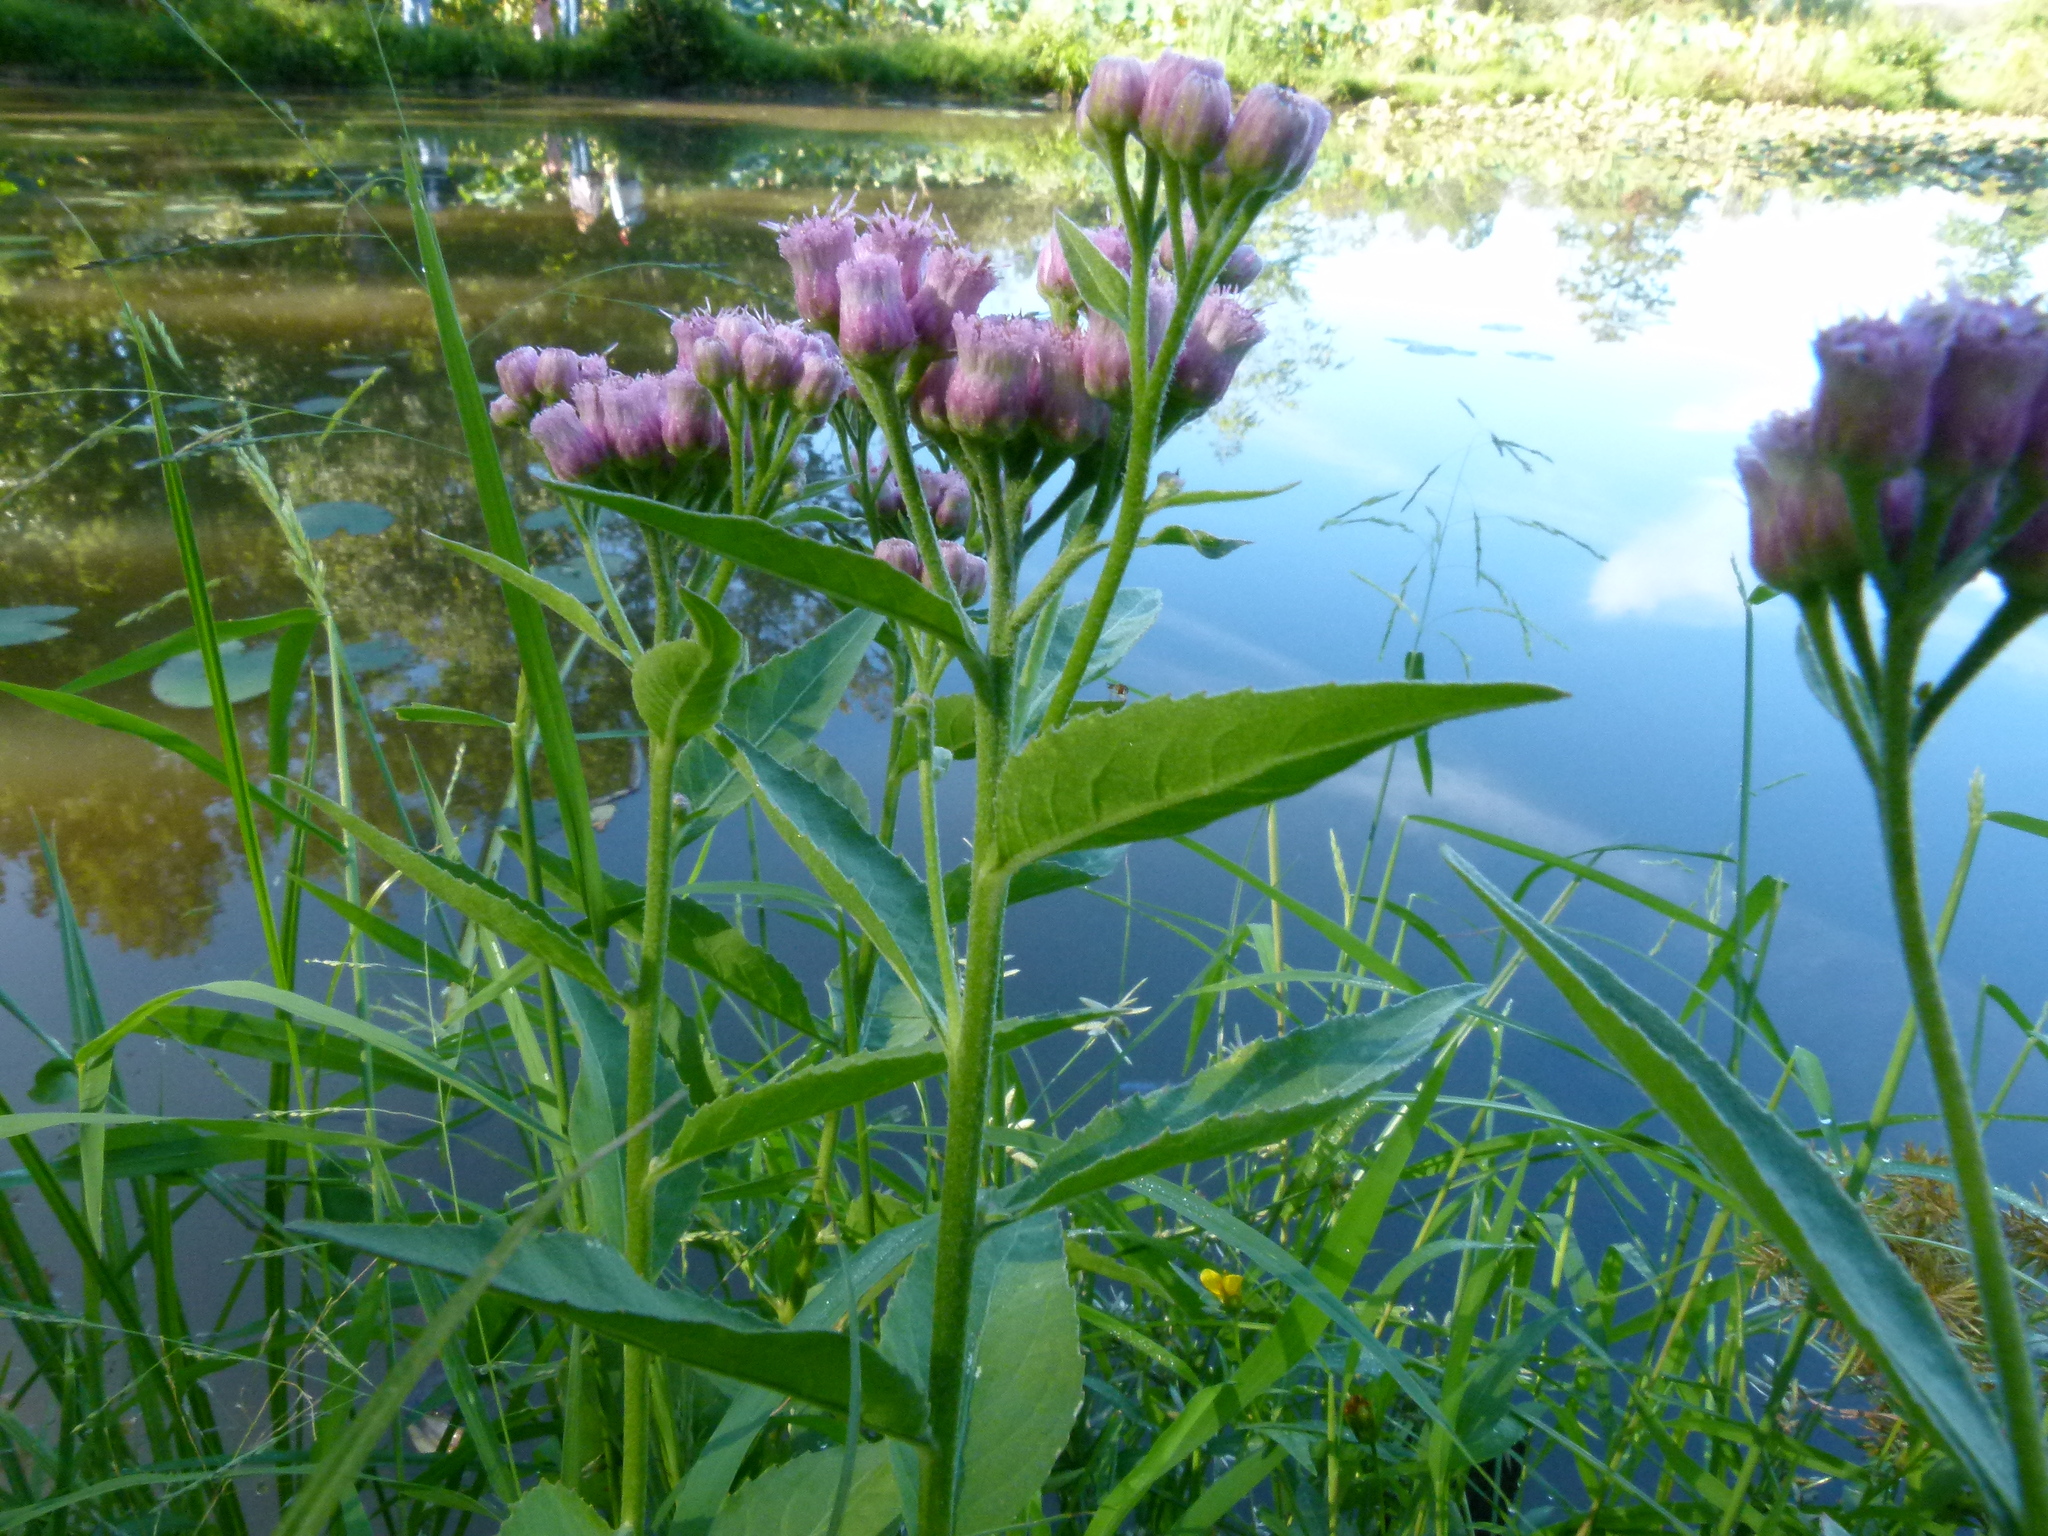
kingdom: Plantae
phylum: Tracheophyta
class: Magnoliopsida
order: Asterales
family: Asteraceae
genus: Pluchea
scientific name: Pluchea odorata
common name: Saltmarsh fleabane
